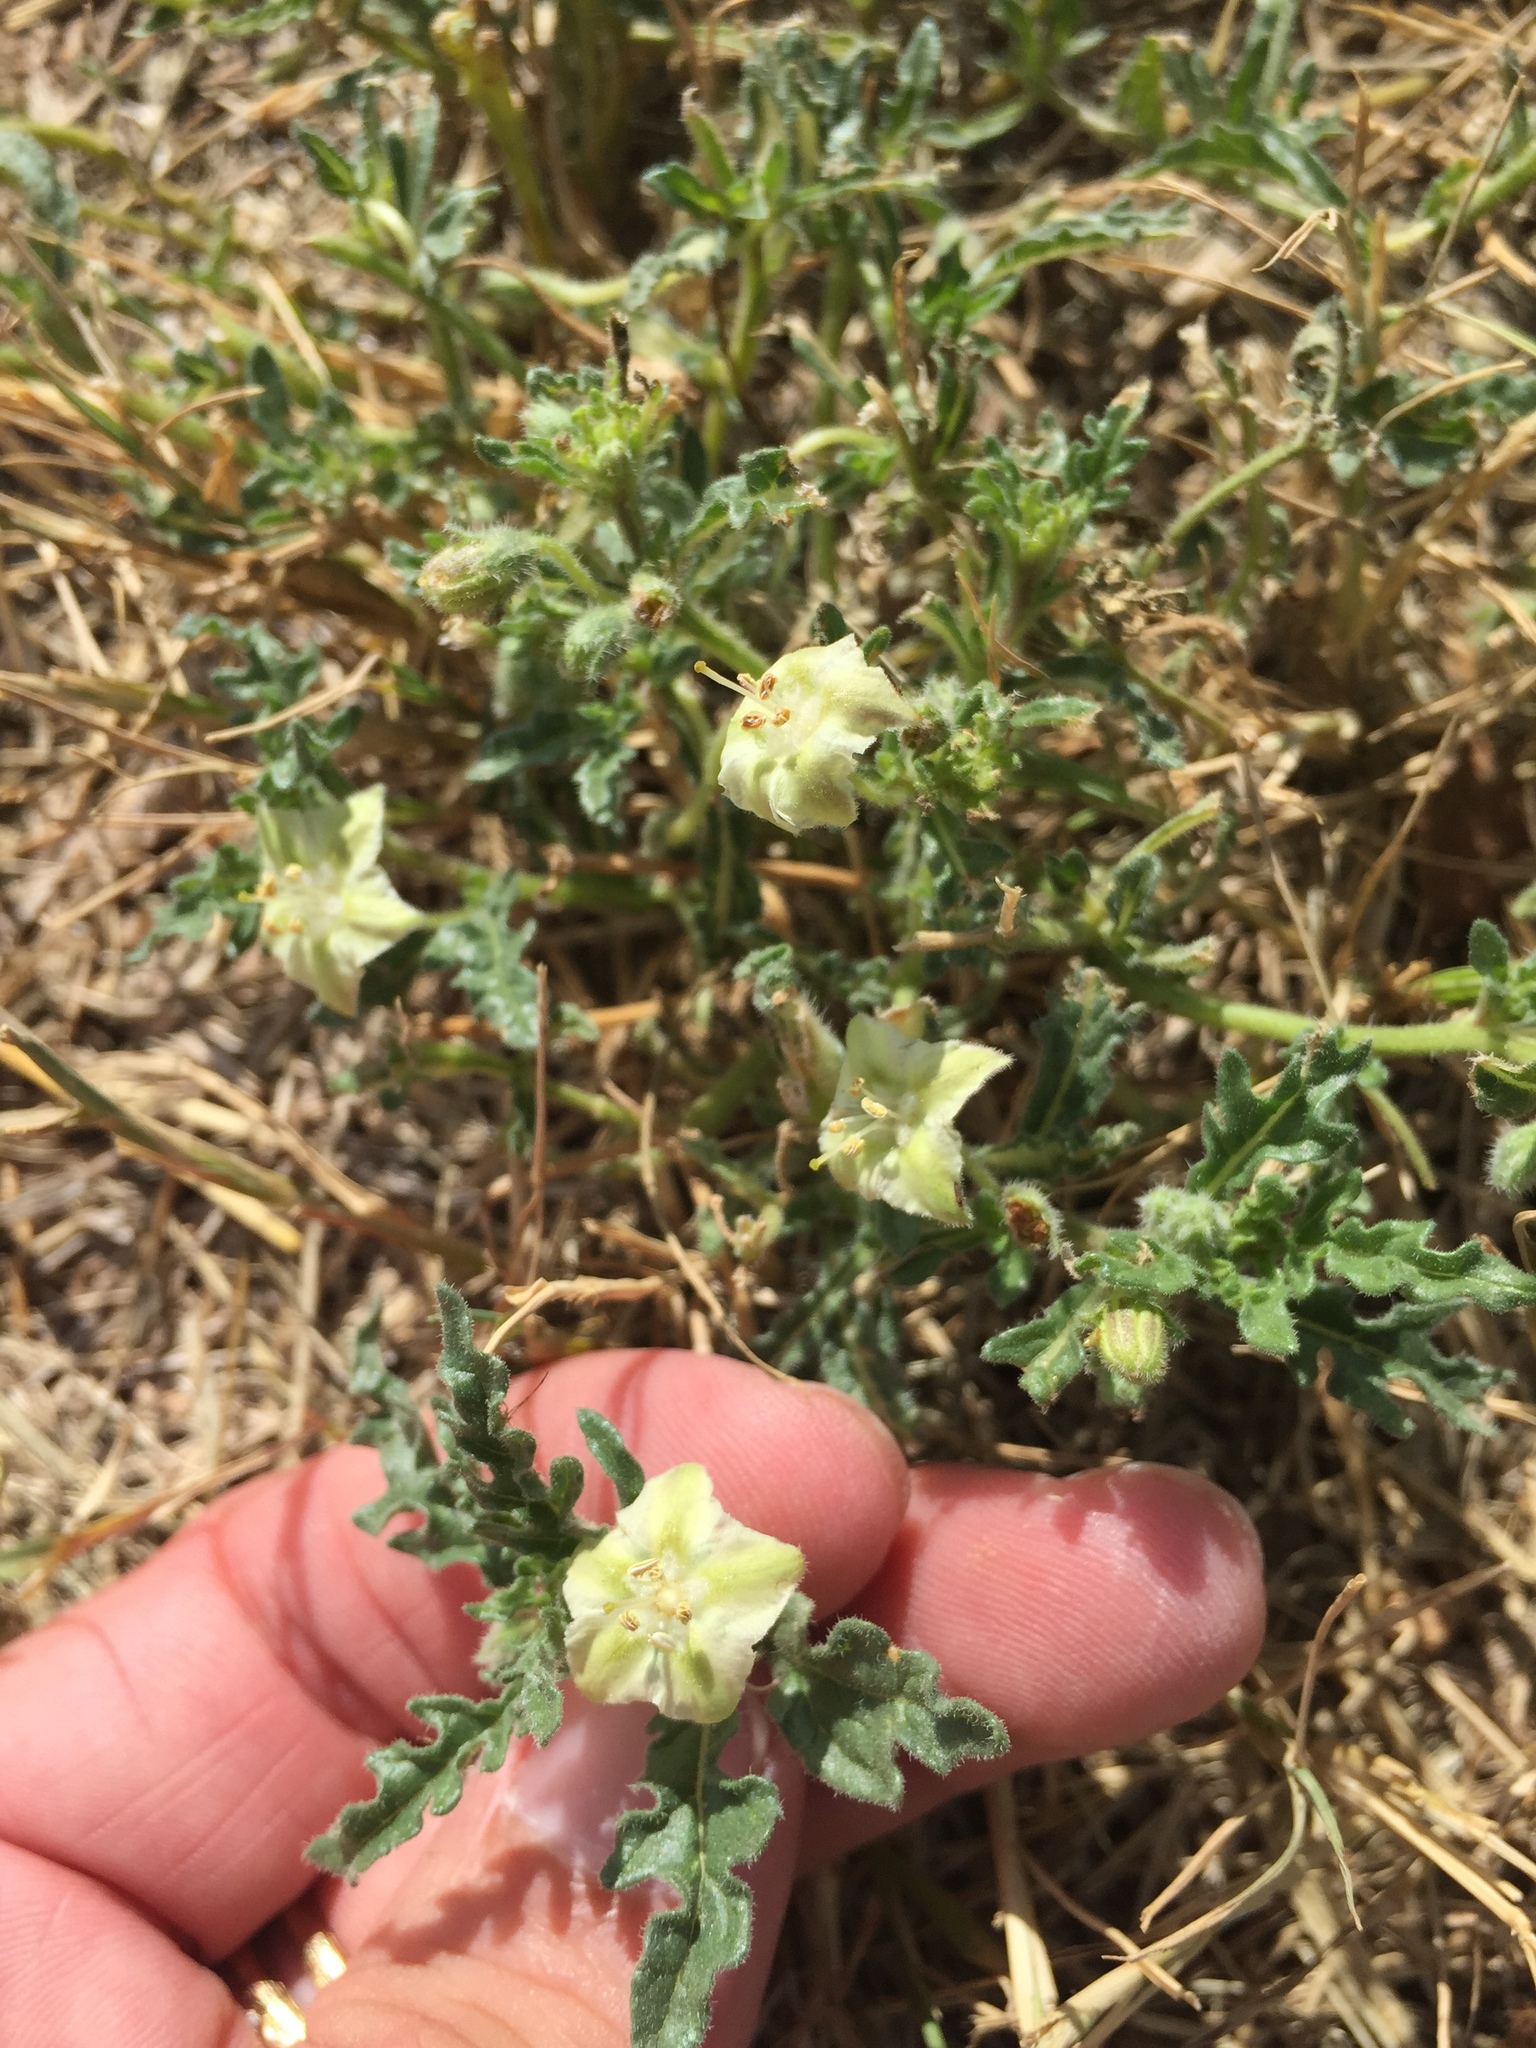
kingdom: Plantae
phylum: Tracheophyta
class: Magnoliopsida
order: Solanales
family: Solanaceae
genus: Chamaesaracha
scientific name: Chamaesaracha coniodes
